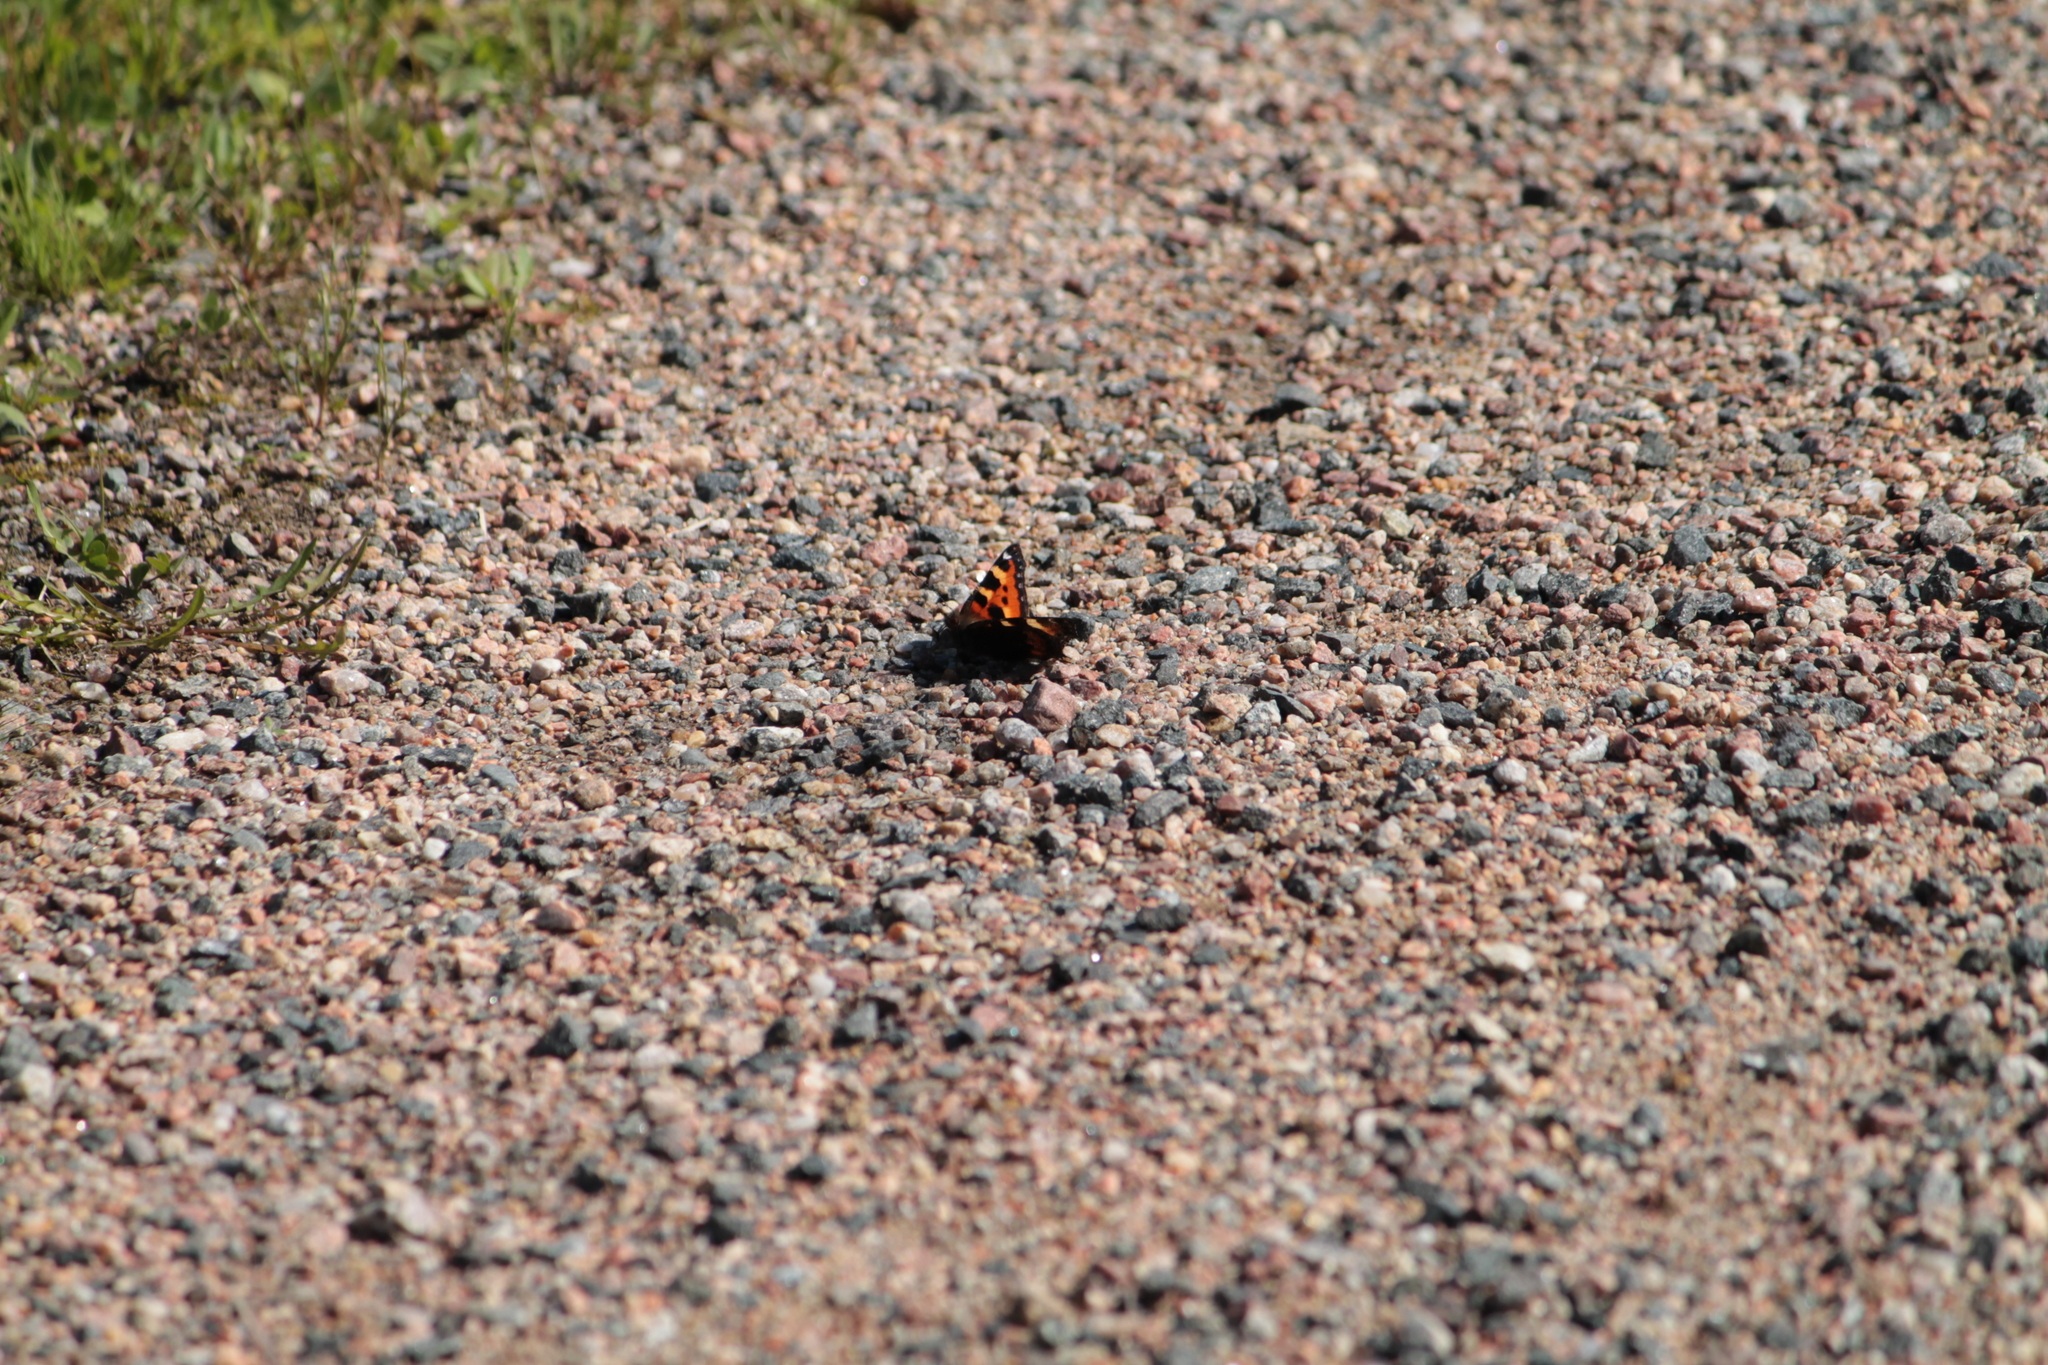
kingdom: Animalia
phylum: Arthropoda
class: Insecta
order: Lepidoptera
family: Nymphalidae
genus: Aglais
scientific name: Aglais urticae
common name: Small tortoiseshell
